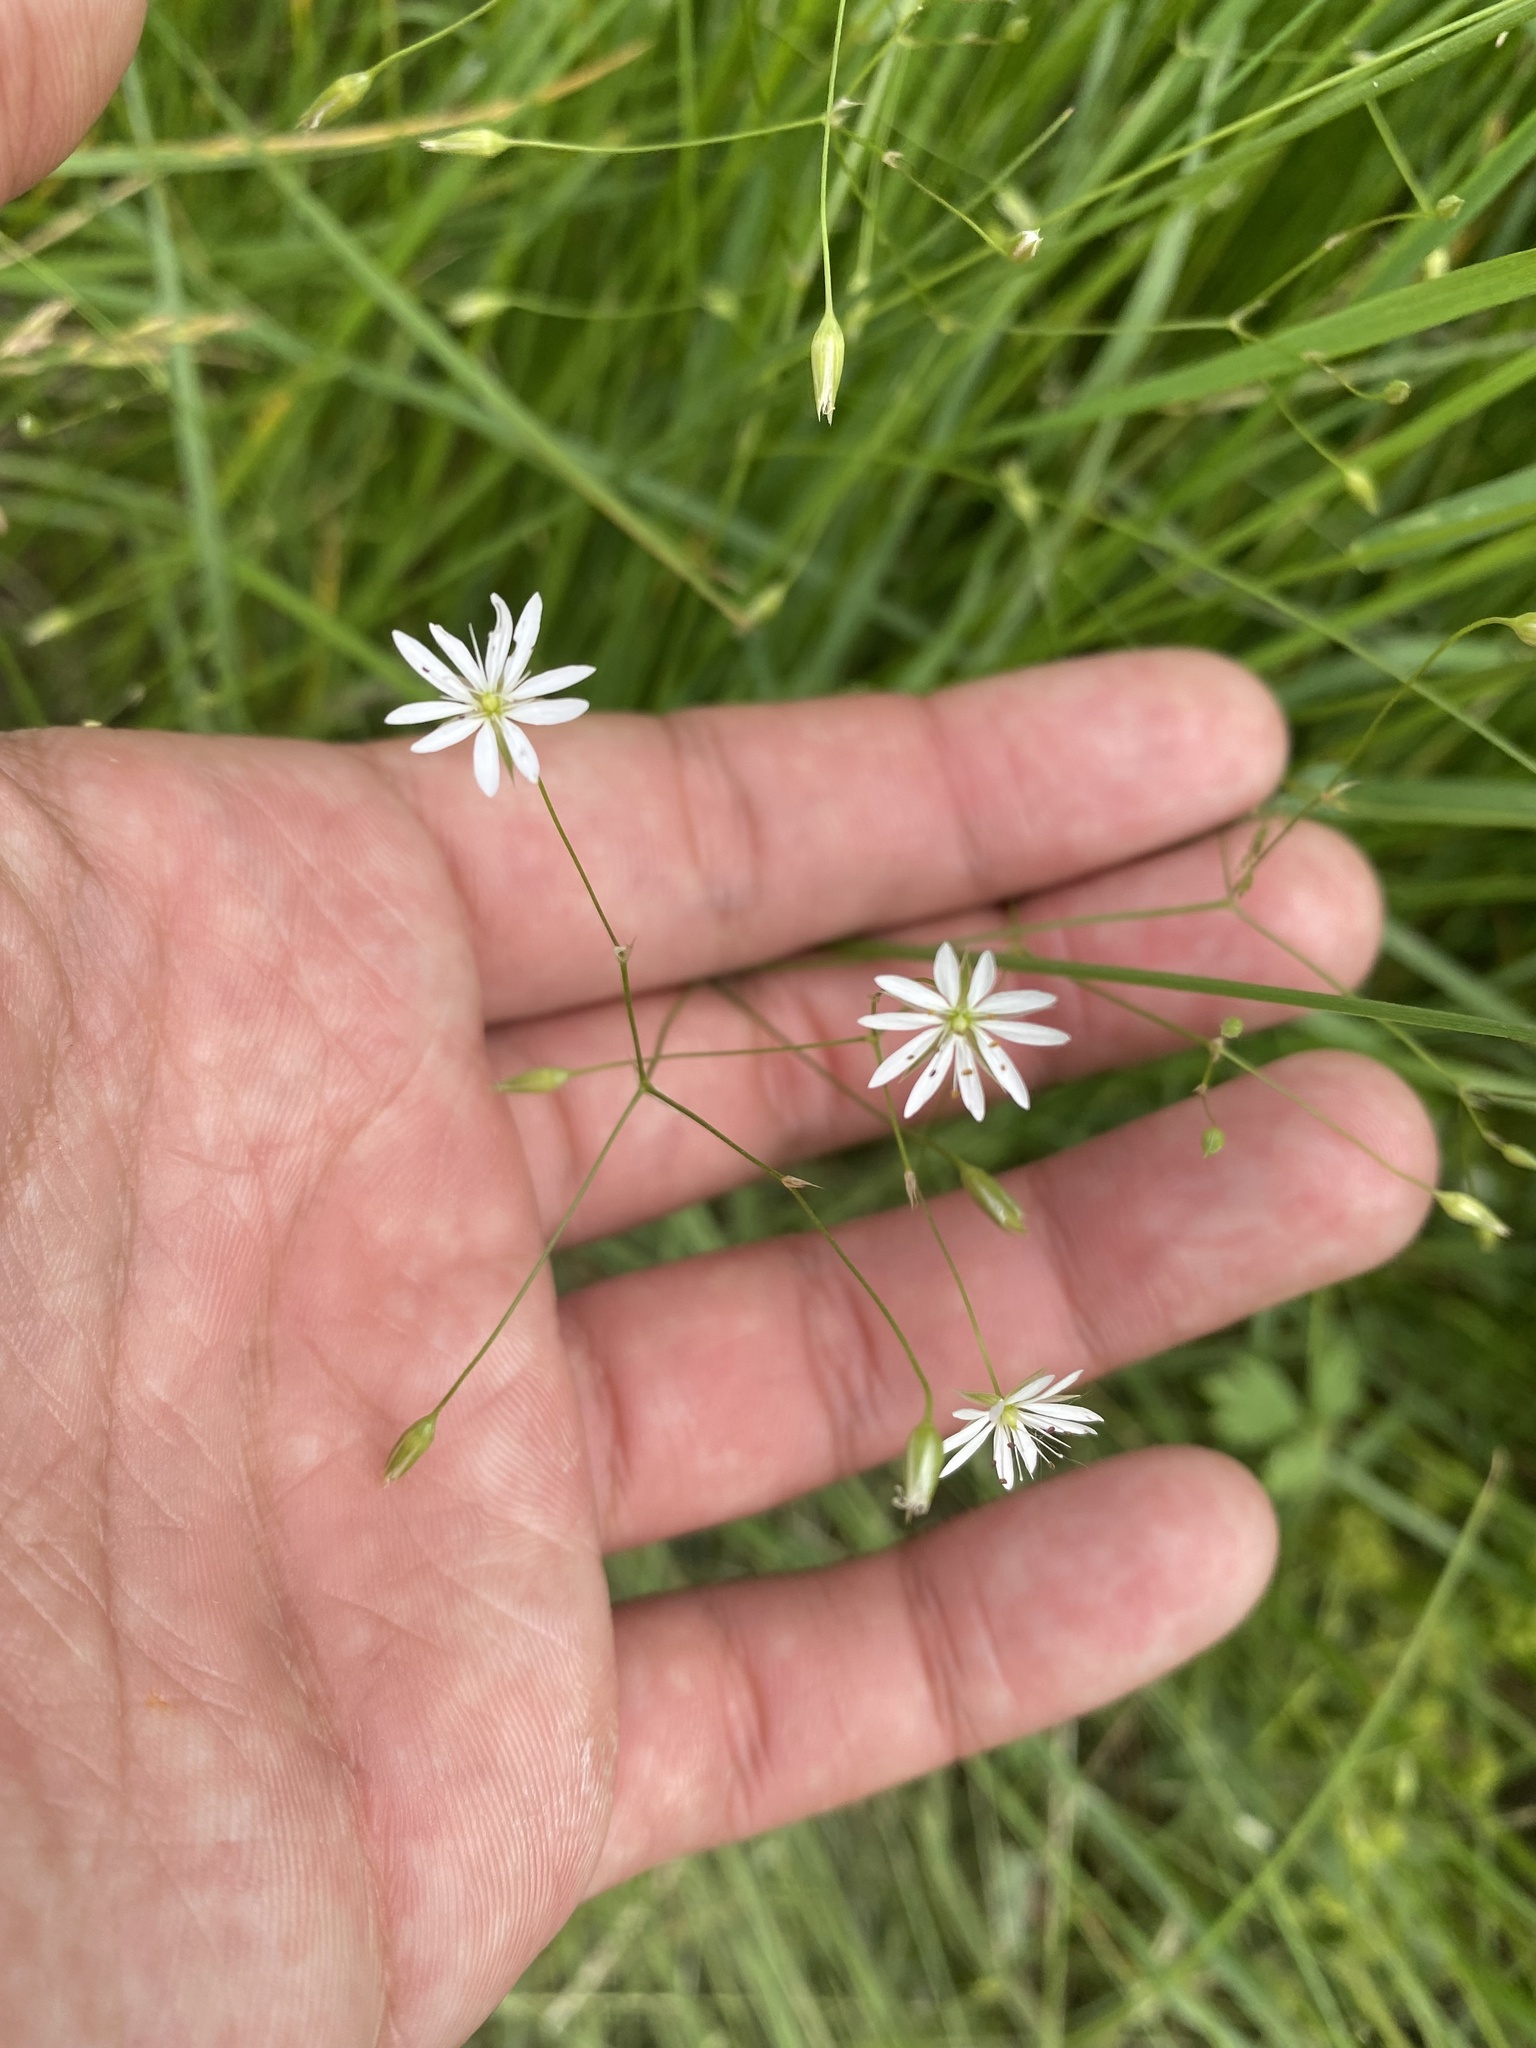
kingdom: Plantae
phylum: Tracheophyta
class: Magnoliopsida
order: Caryophyllales
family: Caryophyllaceae
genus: Stellaria
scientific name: Stellaria graminea
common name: Grass-like starwort
